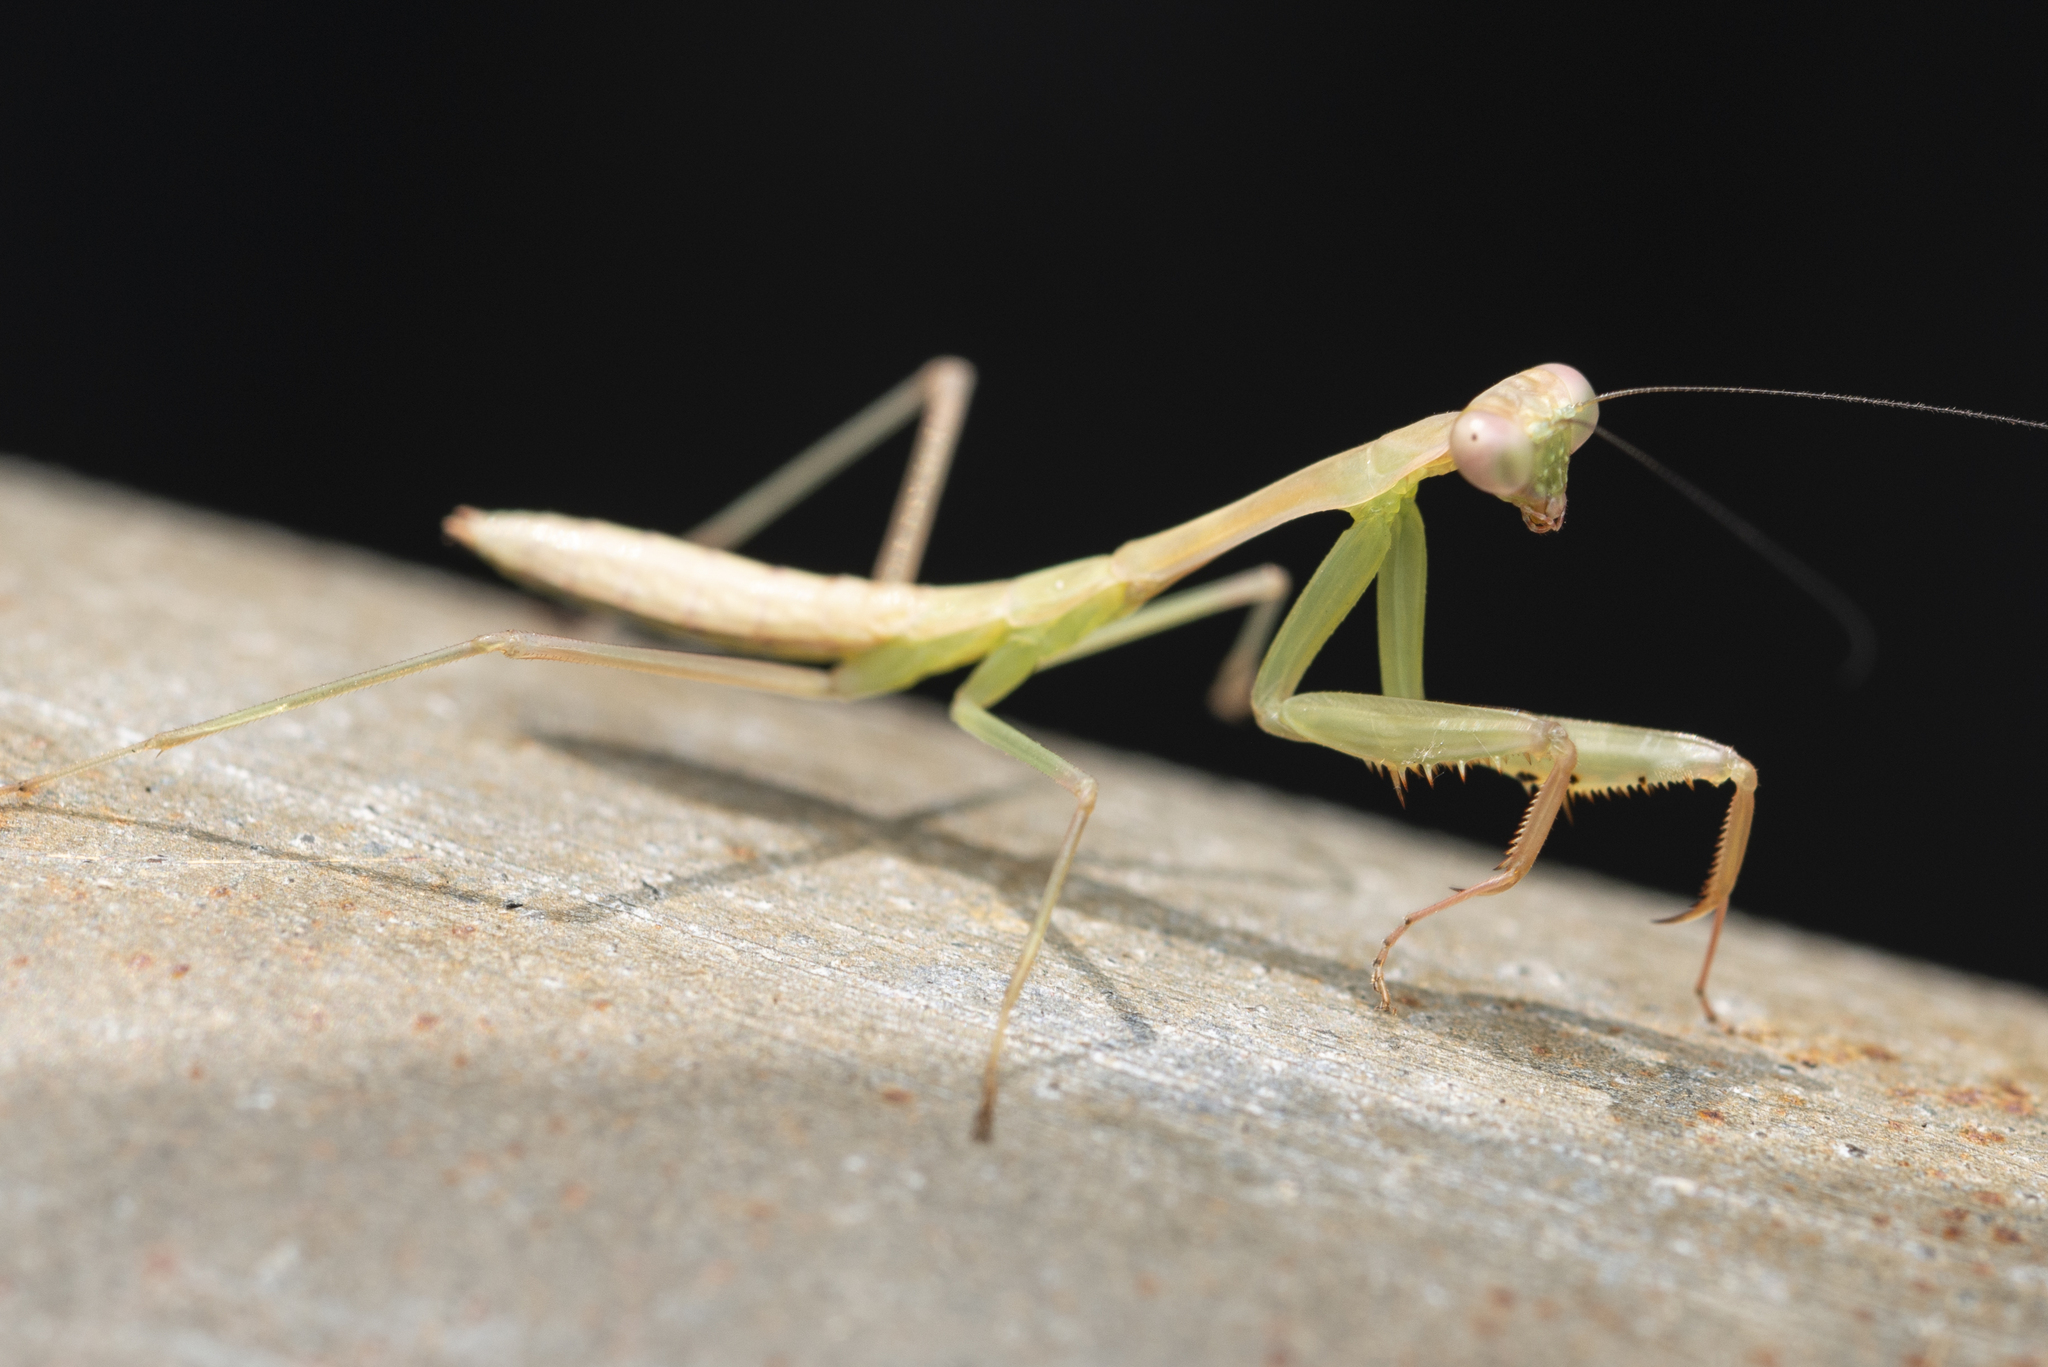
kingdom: Animalia
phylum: Arthropoda
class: Insecta
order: Mantodea
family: Mantidae
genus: Titanodula
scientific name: Titanodula formosana
